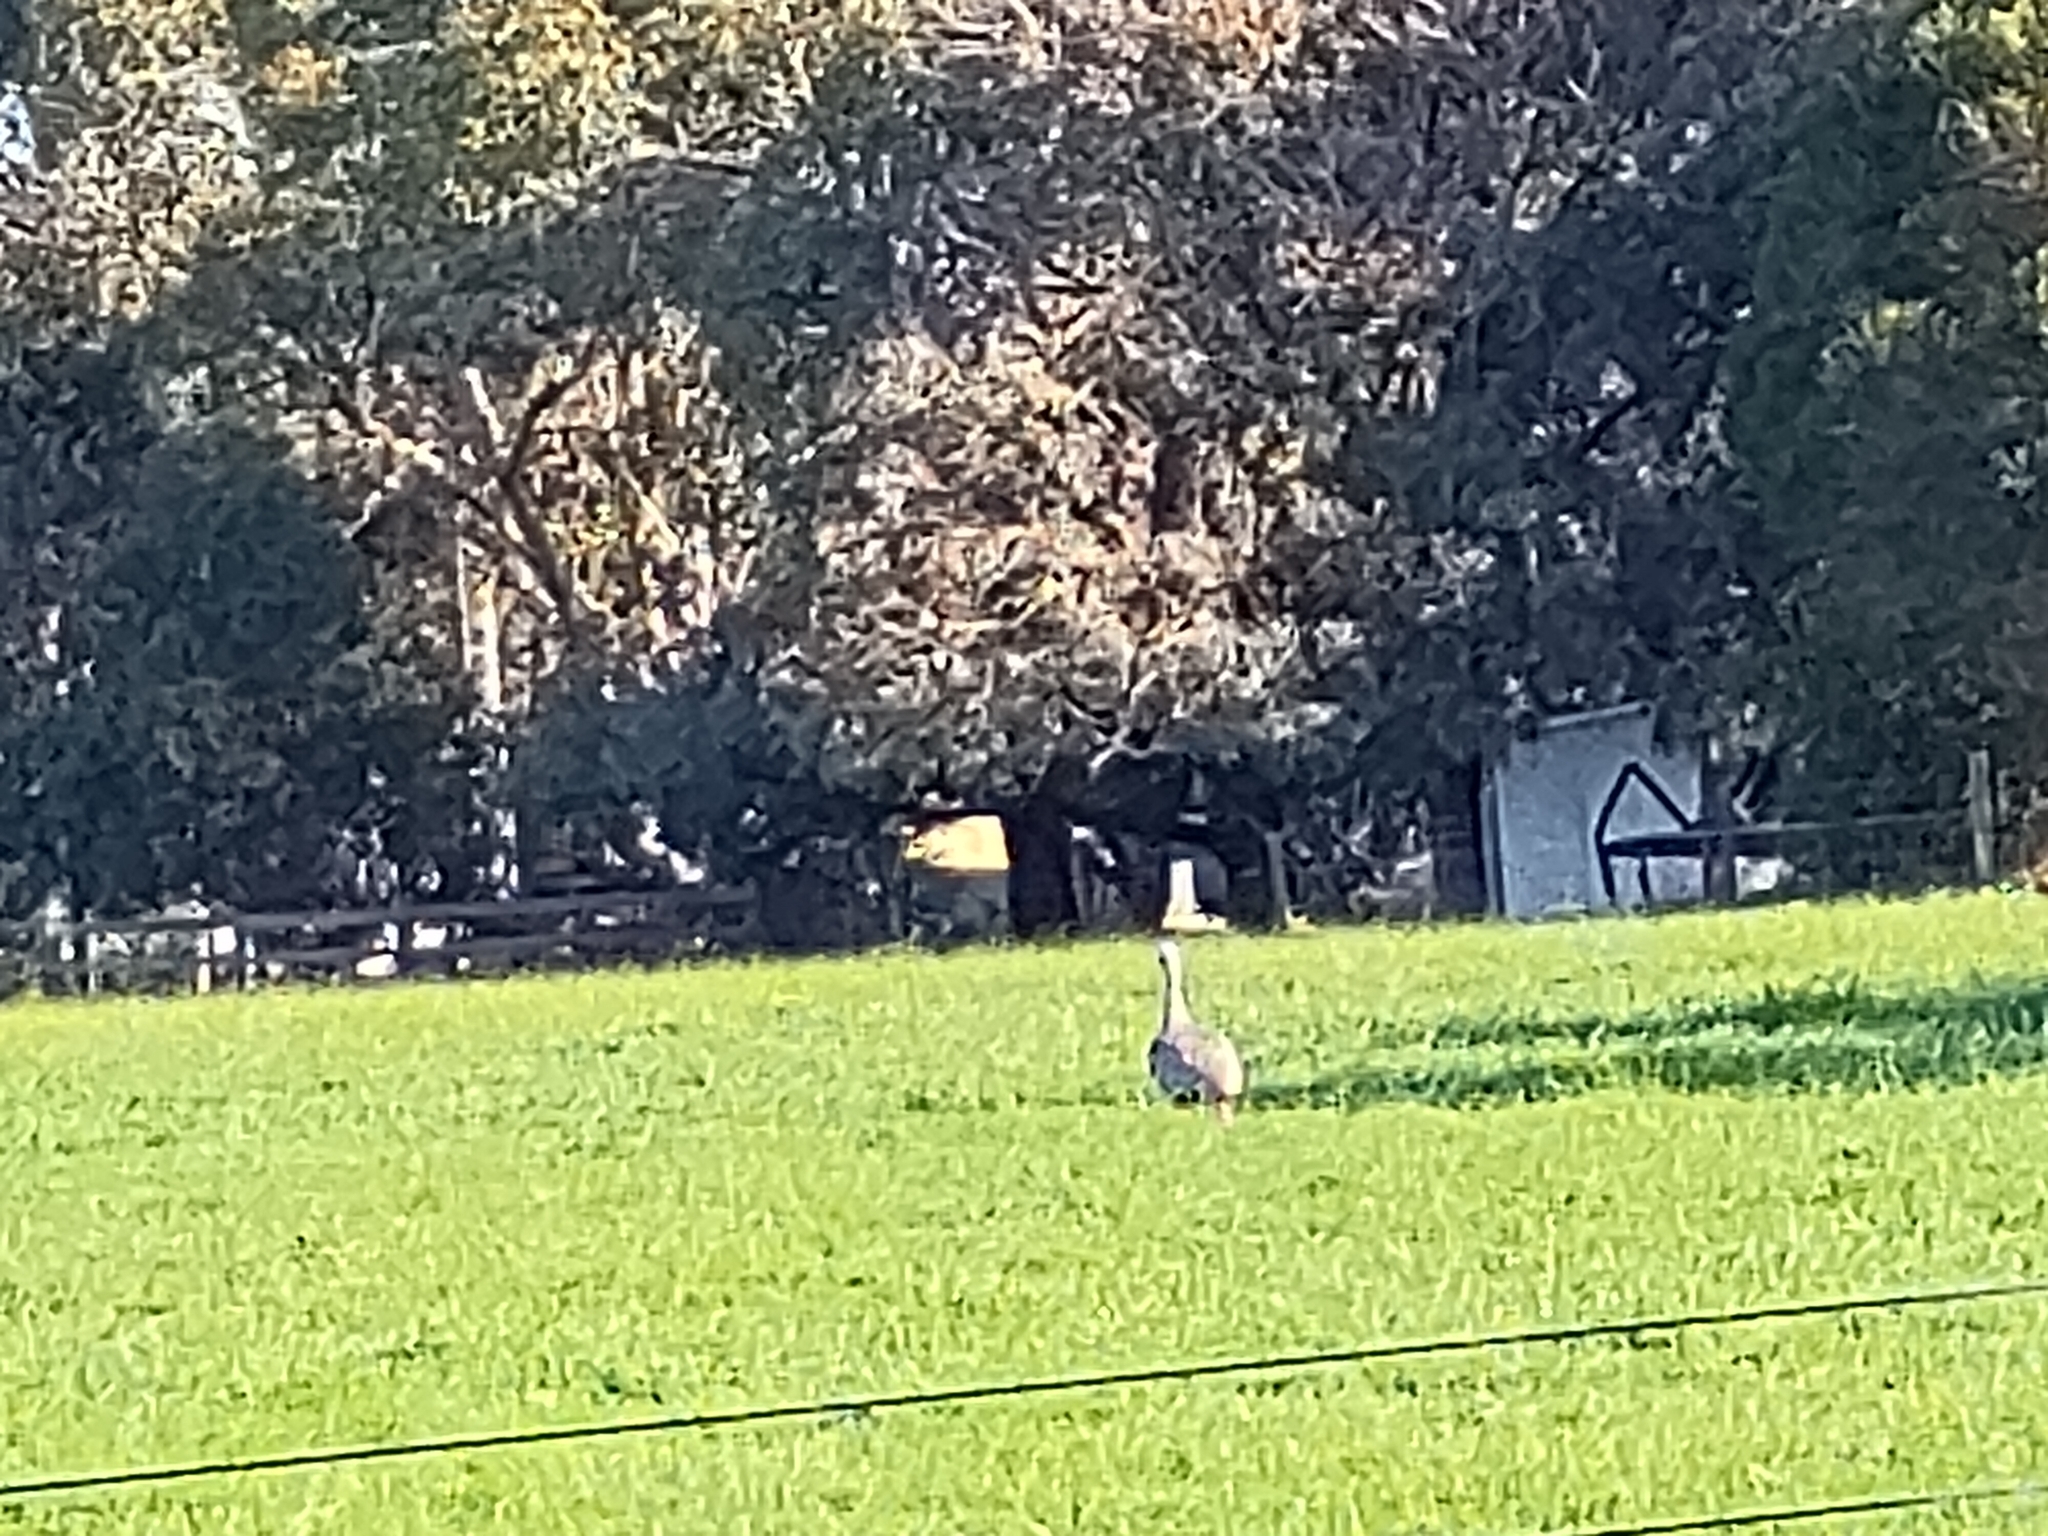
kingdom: Animalia
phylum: Chordata
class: Aves
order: Anseriformes
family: Anatidae
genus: Cereopsis
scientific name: Cereopsis novaehollandiae
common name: Cape barren goose
